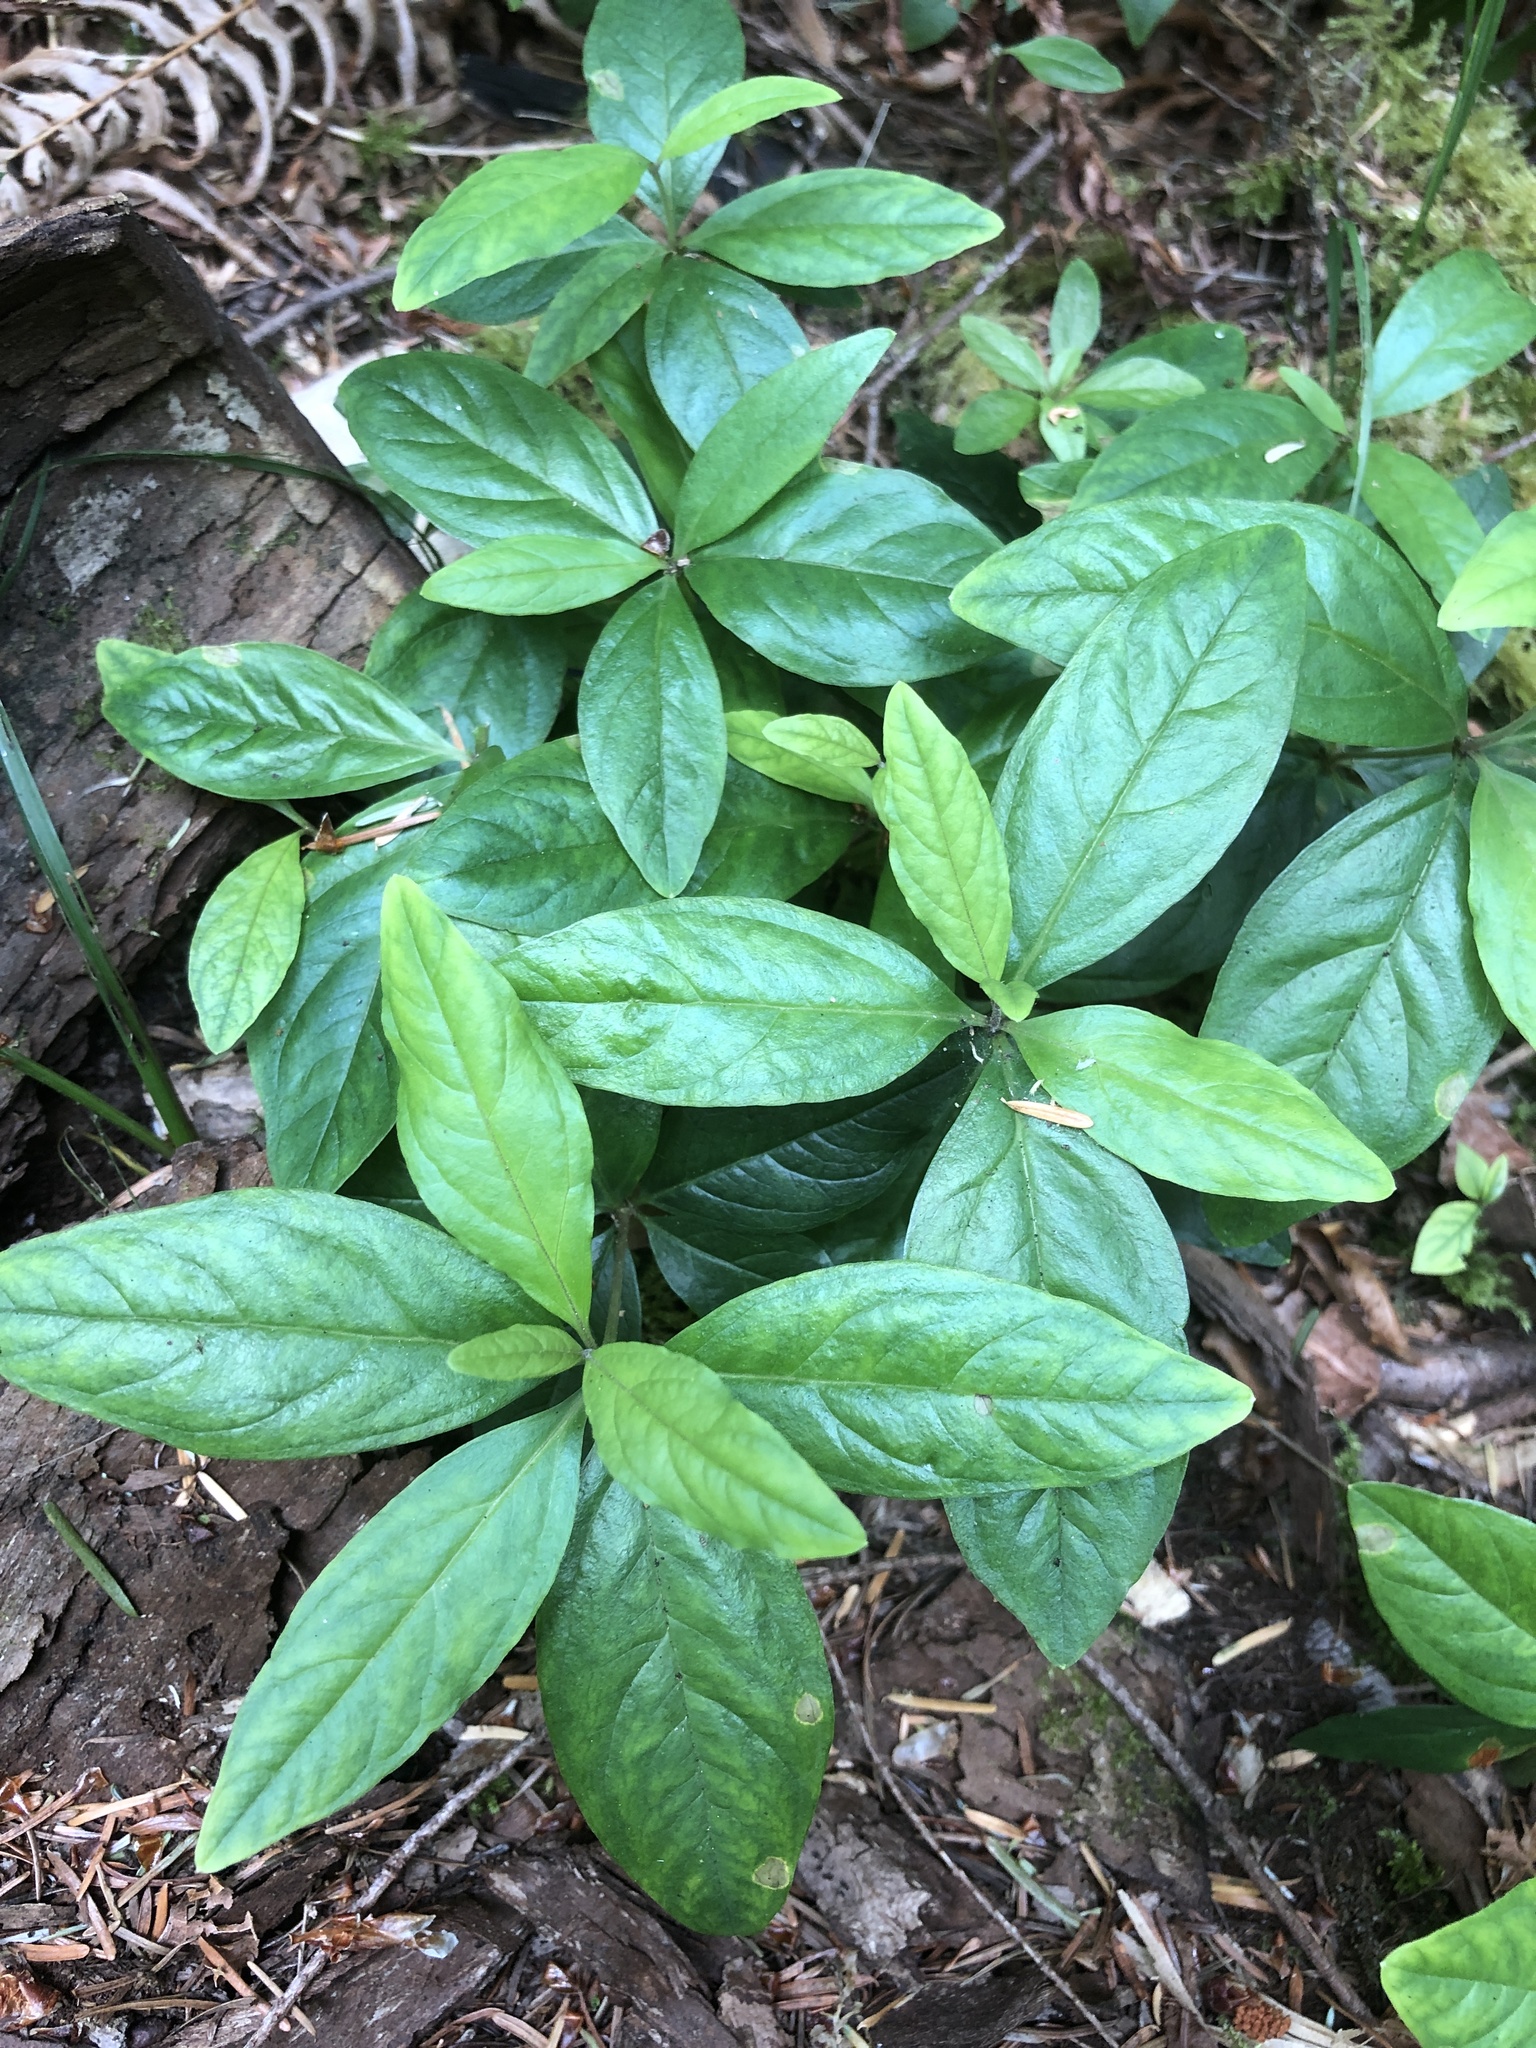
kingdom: Plantae
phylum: Tracheophyta
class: Magnoliopsida
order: Ericales
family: Primulaceae
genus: Lysimachia
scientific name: Lysimachia latifolia
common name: Pacific starflower
